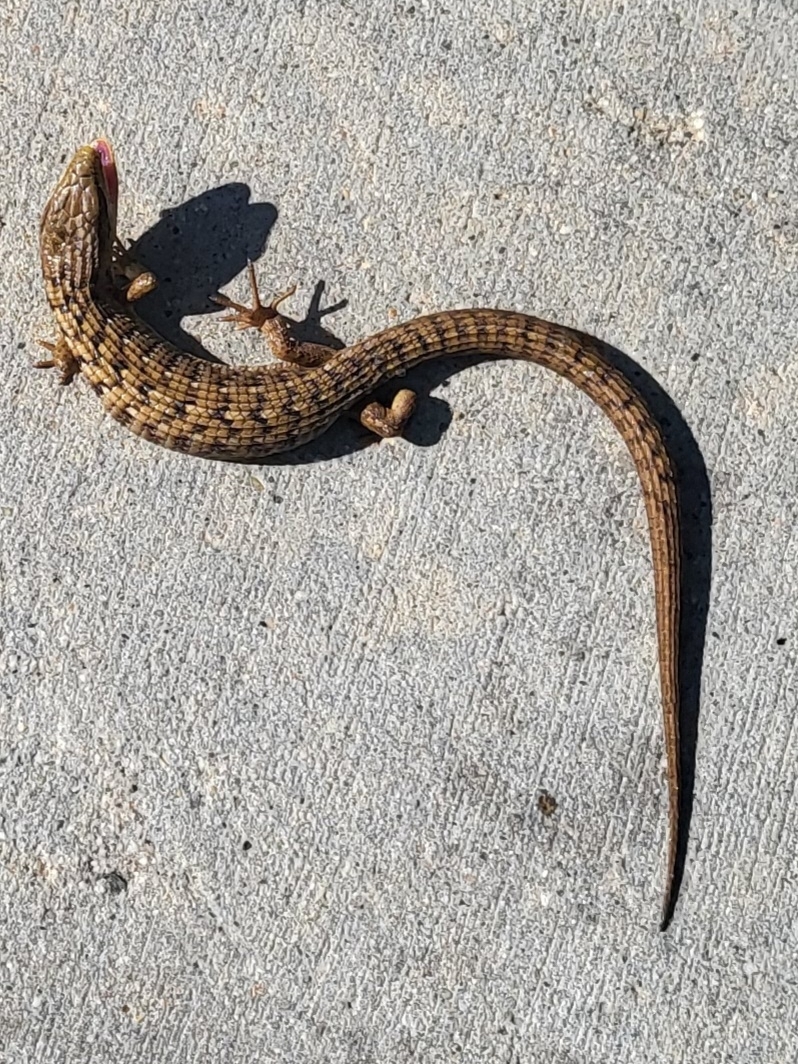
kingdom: Animalia
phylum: Chordata
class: Squamata
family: Anguidae
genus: Elgaria
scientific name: Elgaria multicarinata
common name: Southern alligator lizard
